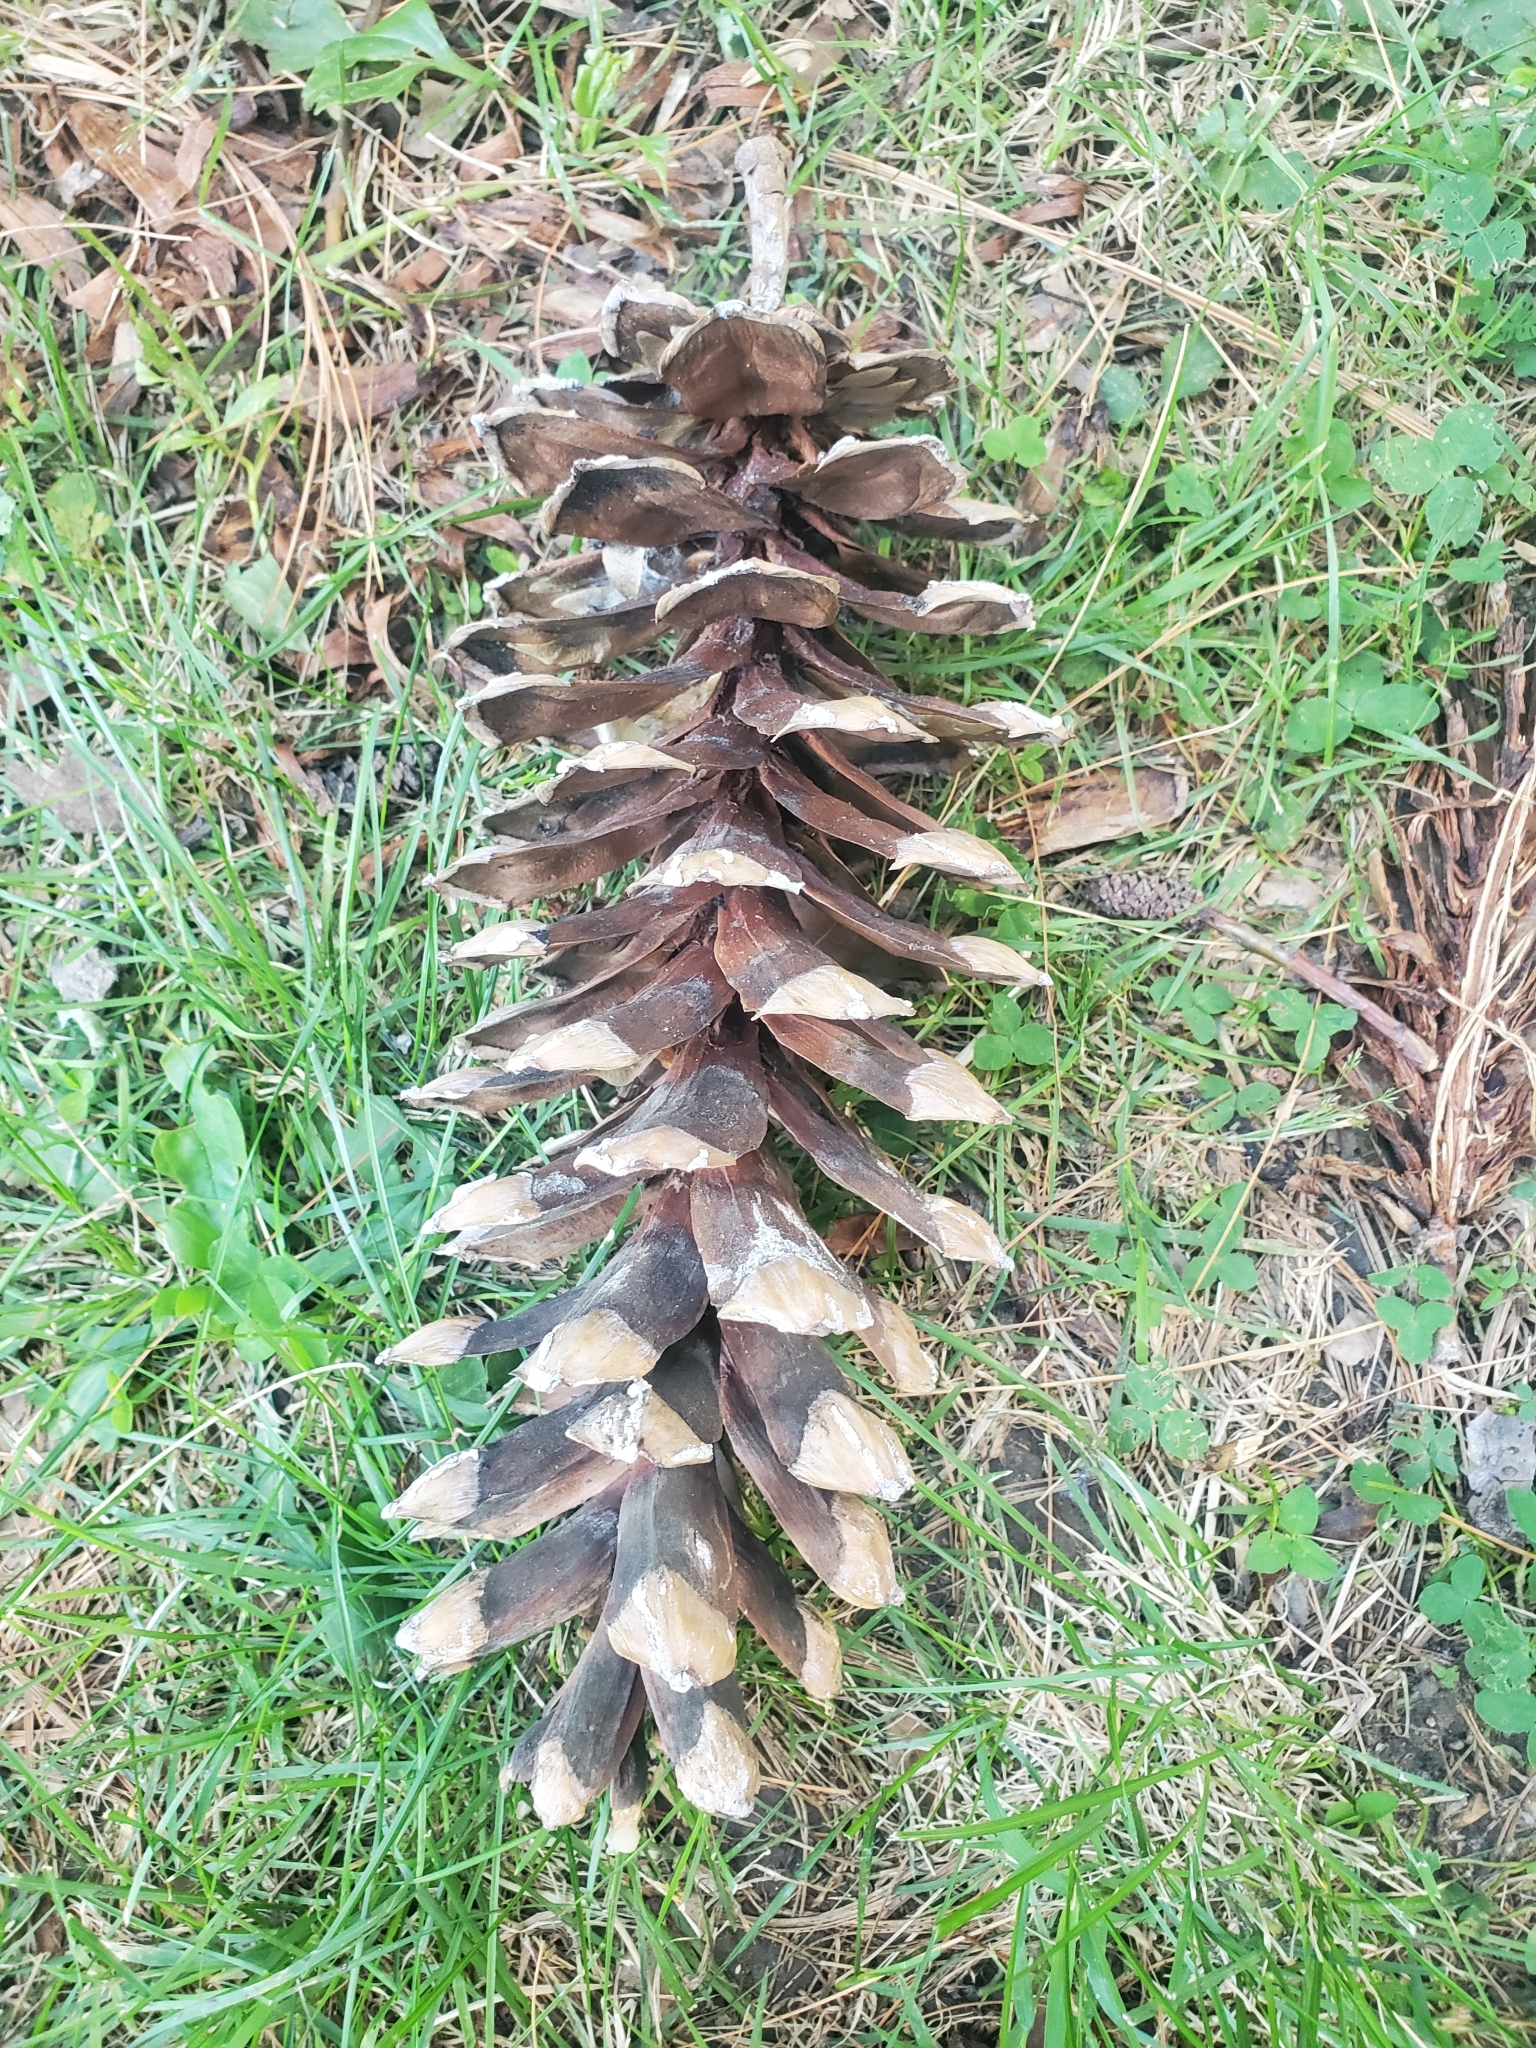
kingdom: Plantae
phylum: Tracheophyta
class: Pinopsida
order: Pinales
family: Pinaceae
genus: Pinus
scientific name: Pinus strobus
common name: Weymouth pine
